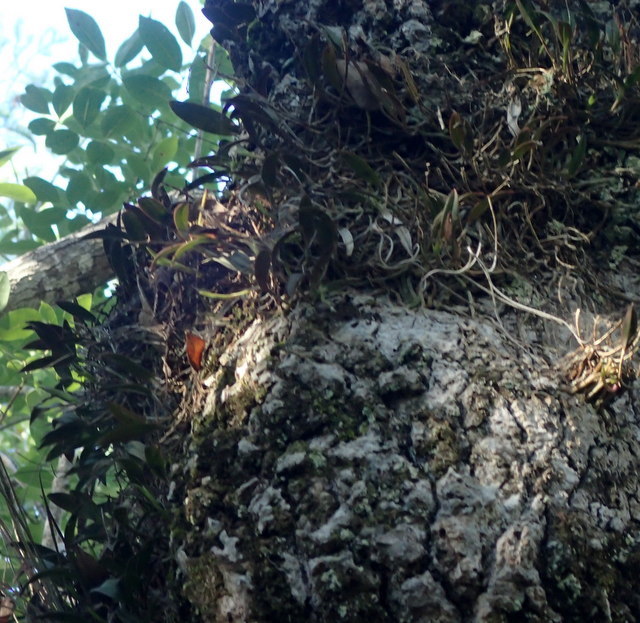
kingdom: Plantae
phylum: Tracheophyta
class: Liliopsida
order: Asparagales
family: Orchidaceae
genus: Epidendrum
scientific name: Epidendrum conopseum
